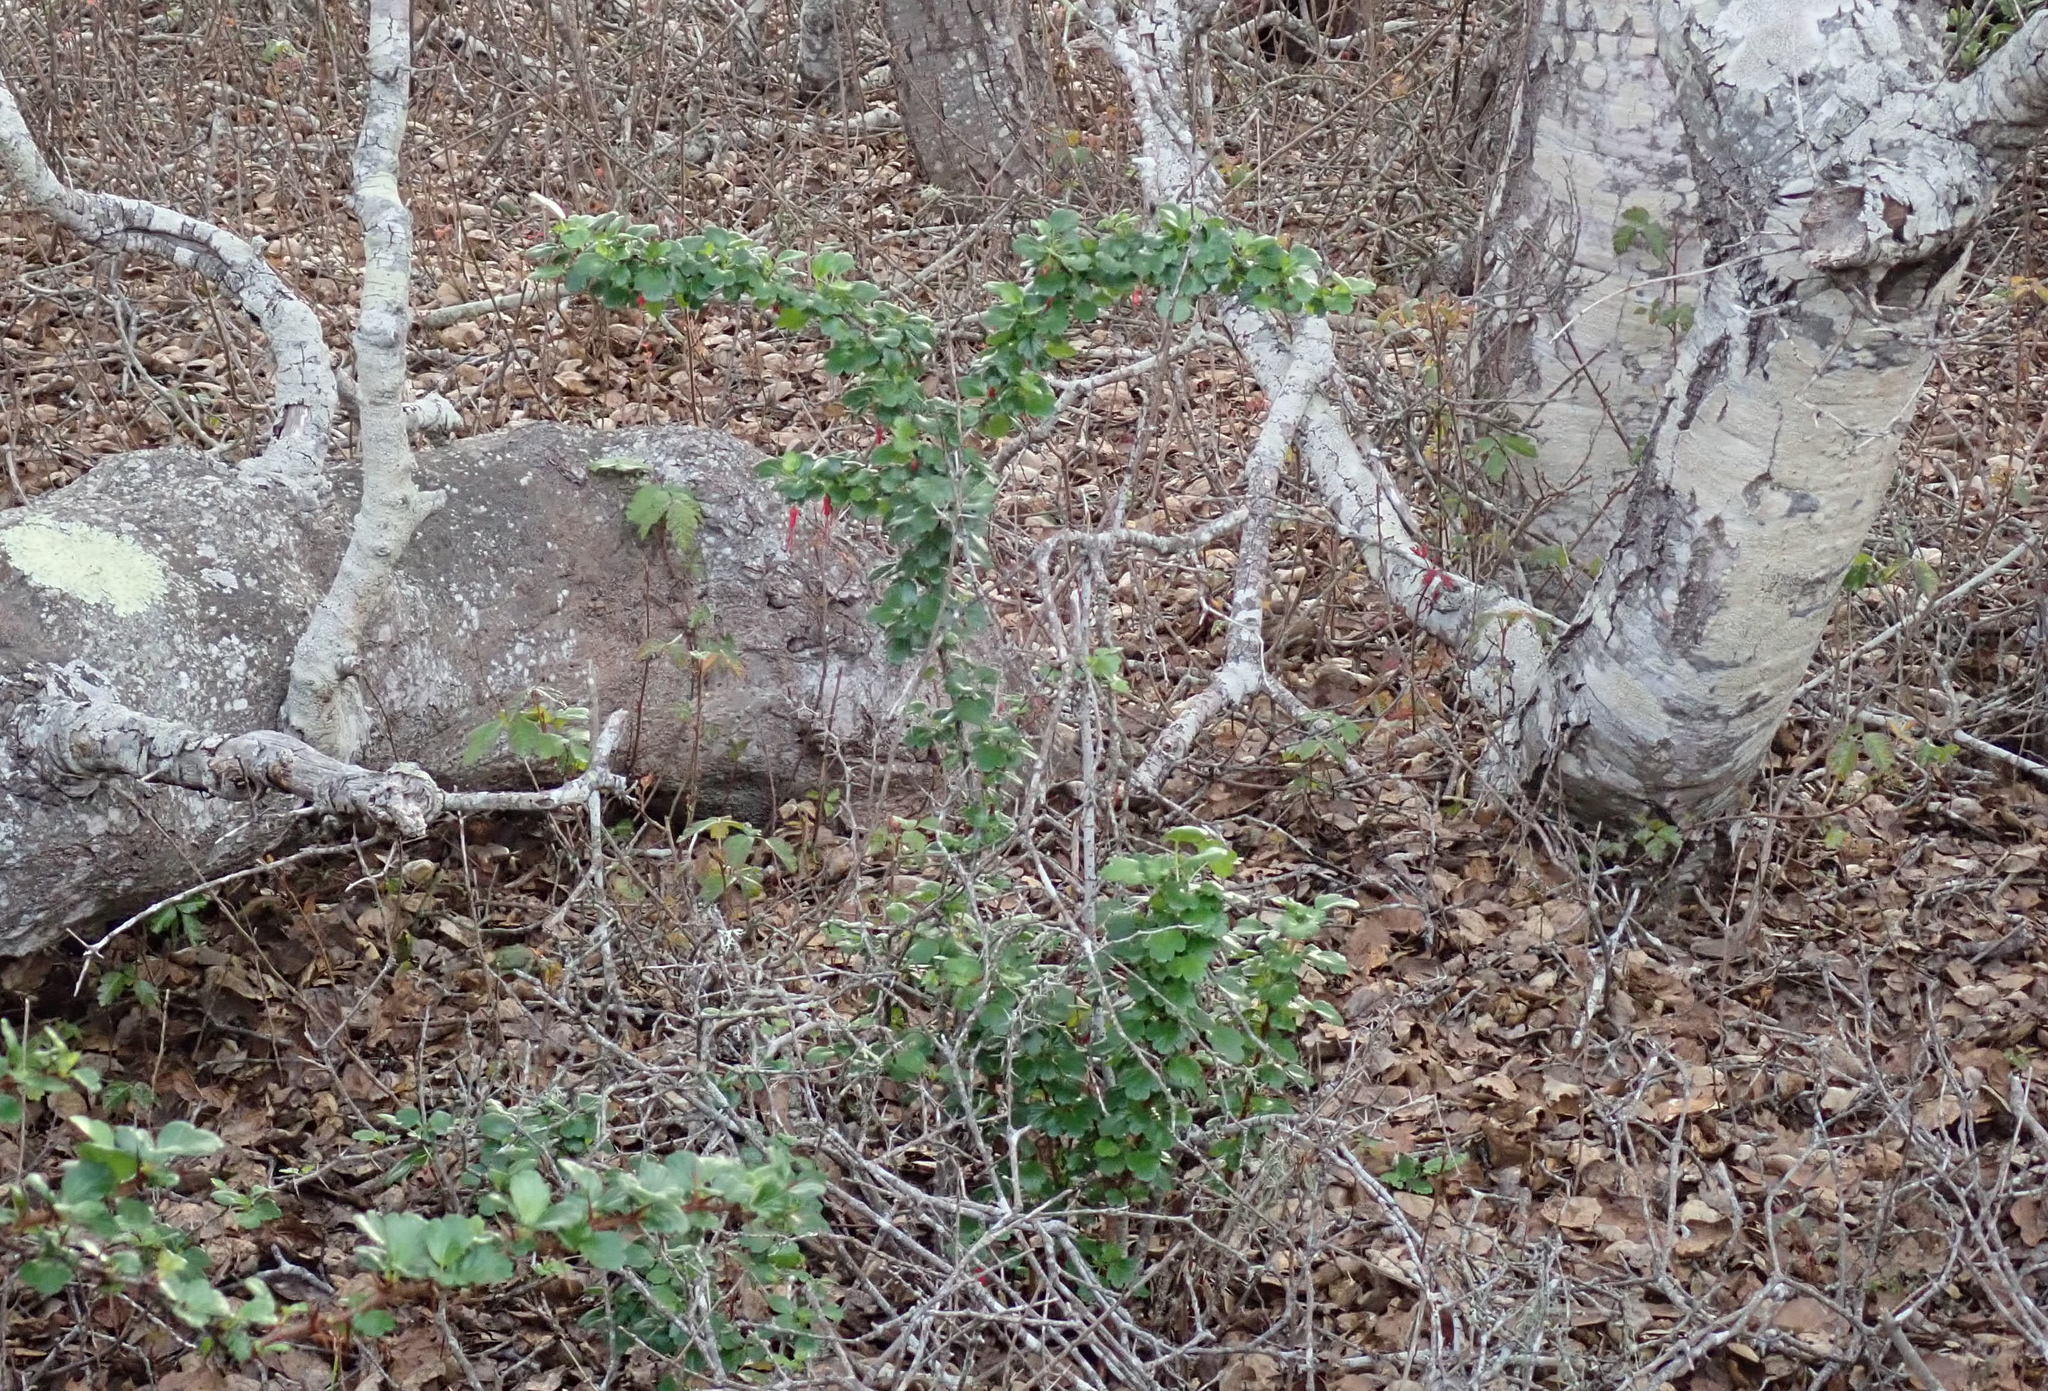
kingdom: Plantae
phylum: Tracheophyta
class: Magnoliopsida
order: Saxifragales
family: Grossulariaceae
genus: Ribes
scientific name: Ribes speciosum
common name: Fuchsia-flower gooseberry
